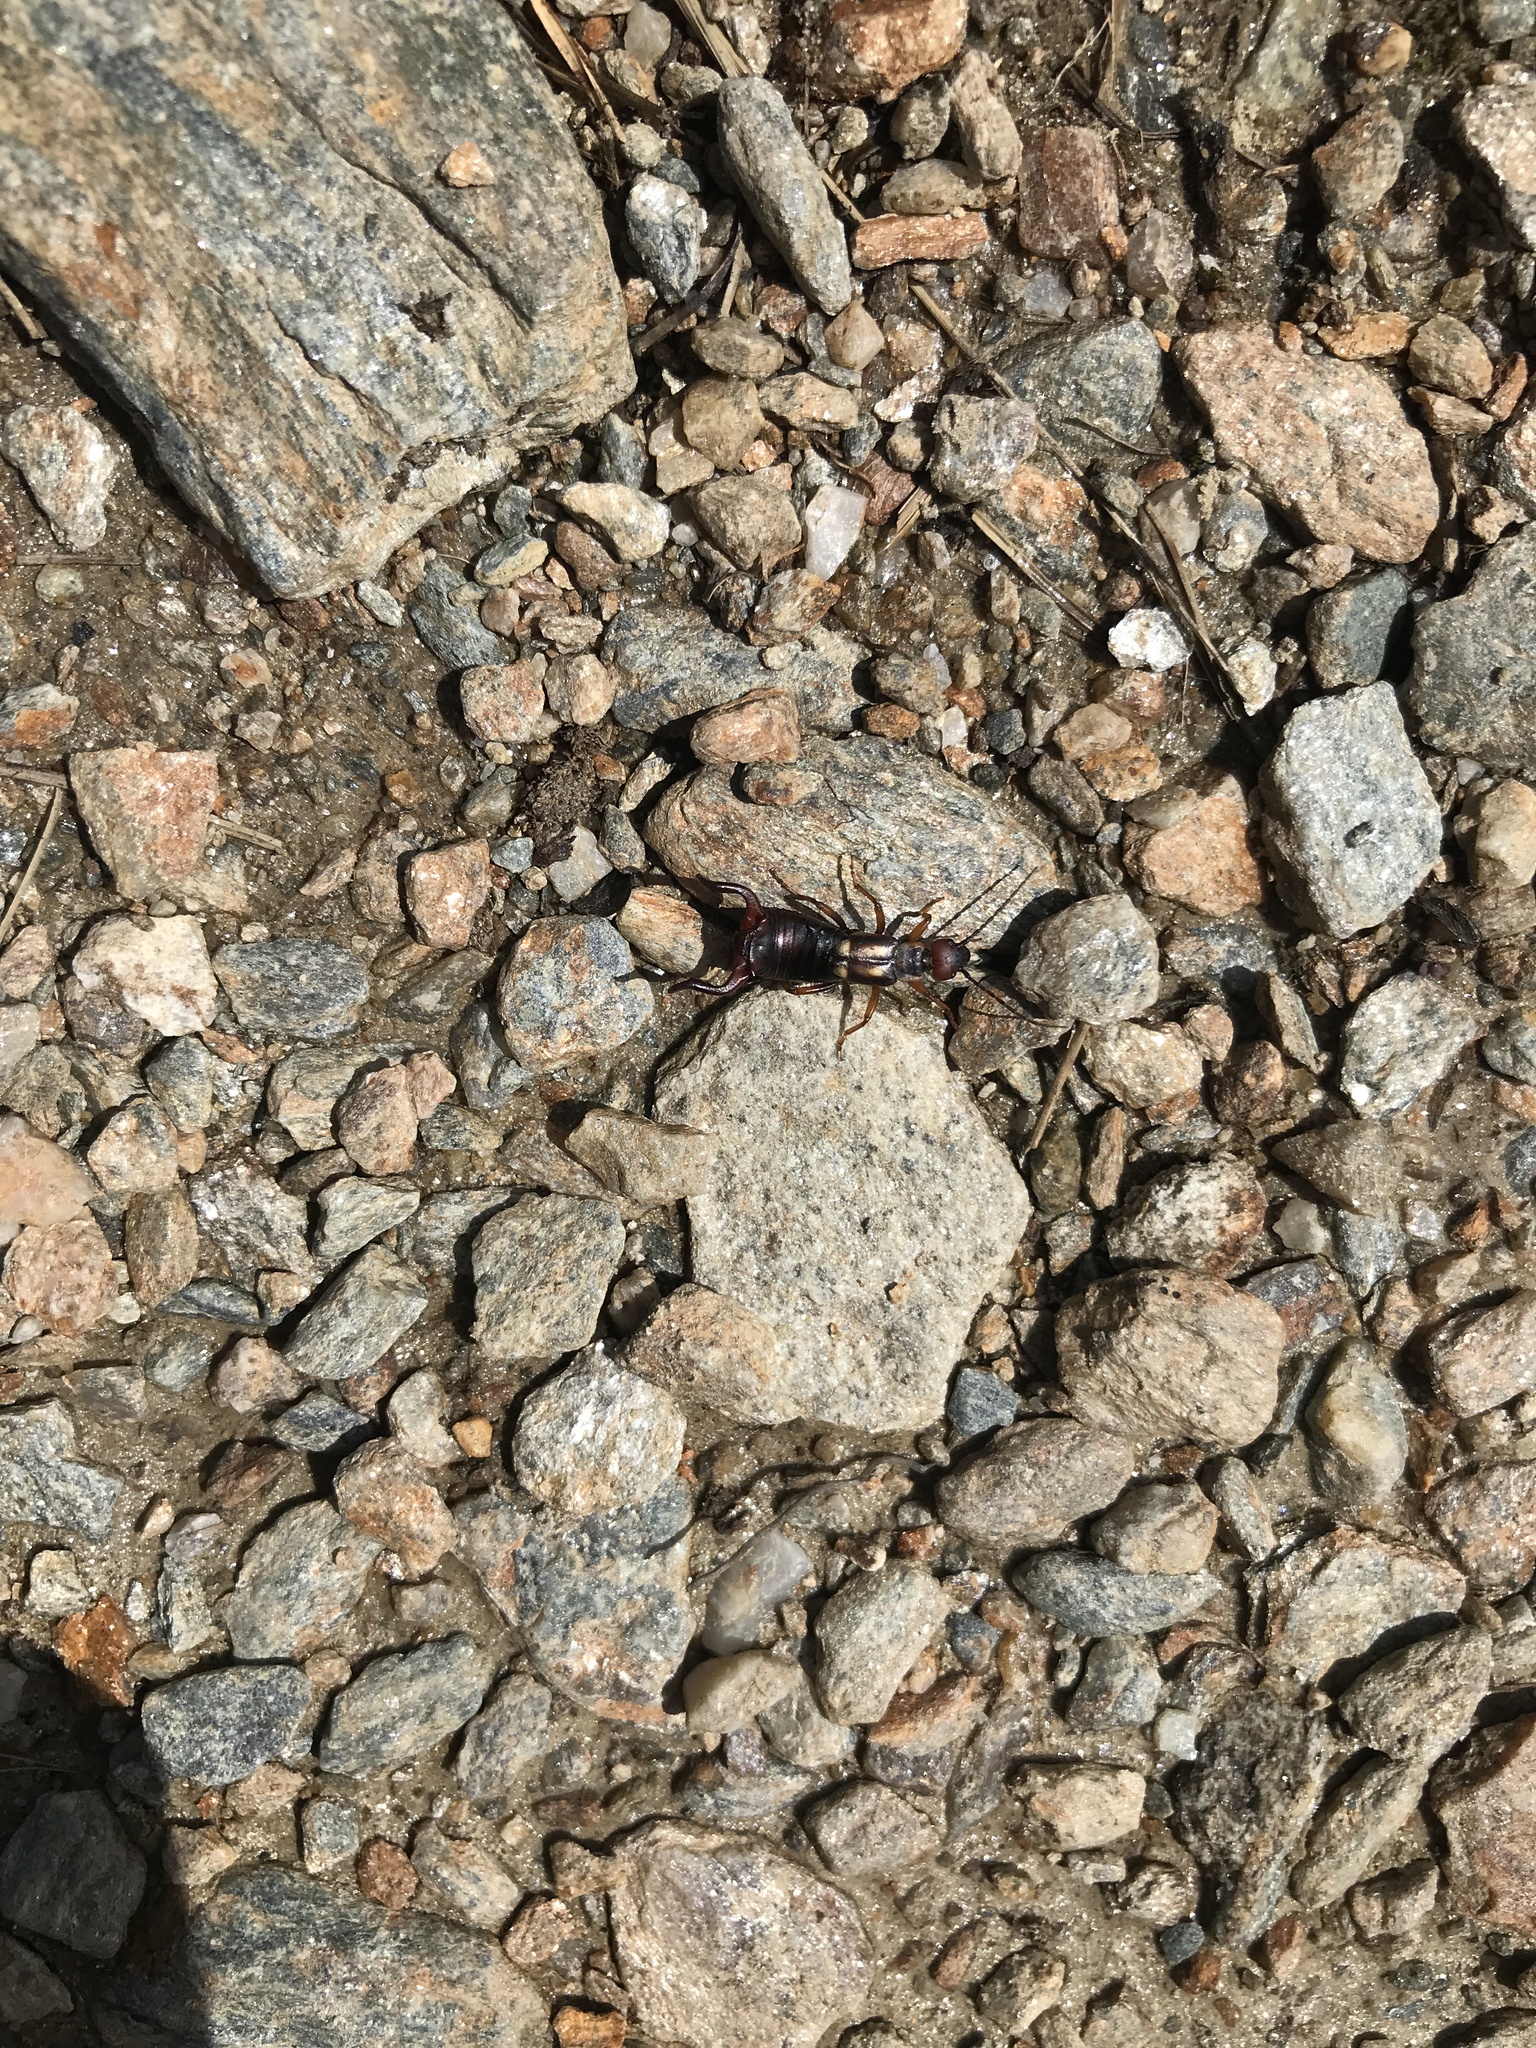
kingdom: Animalia
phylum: Arthropoda
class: Insecta
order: Dermaptera
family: Forficulidae
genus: Anechura
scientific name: Anechura bipunctata
